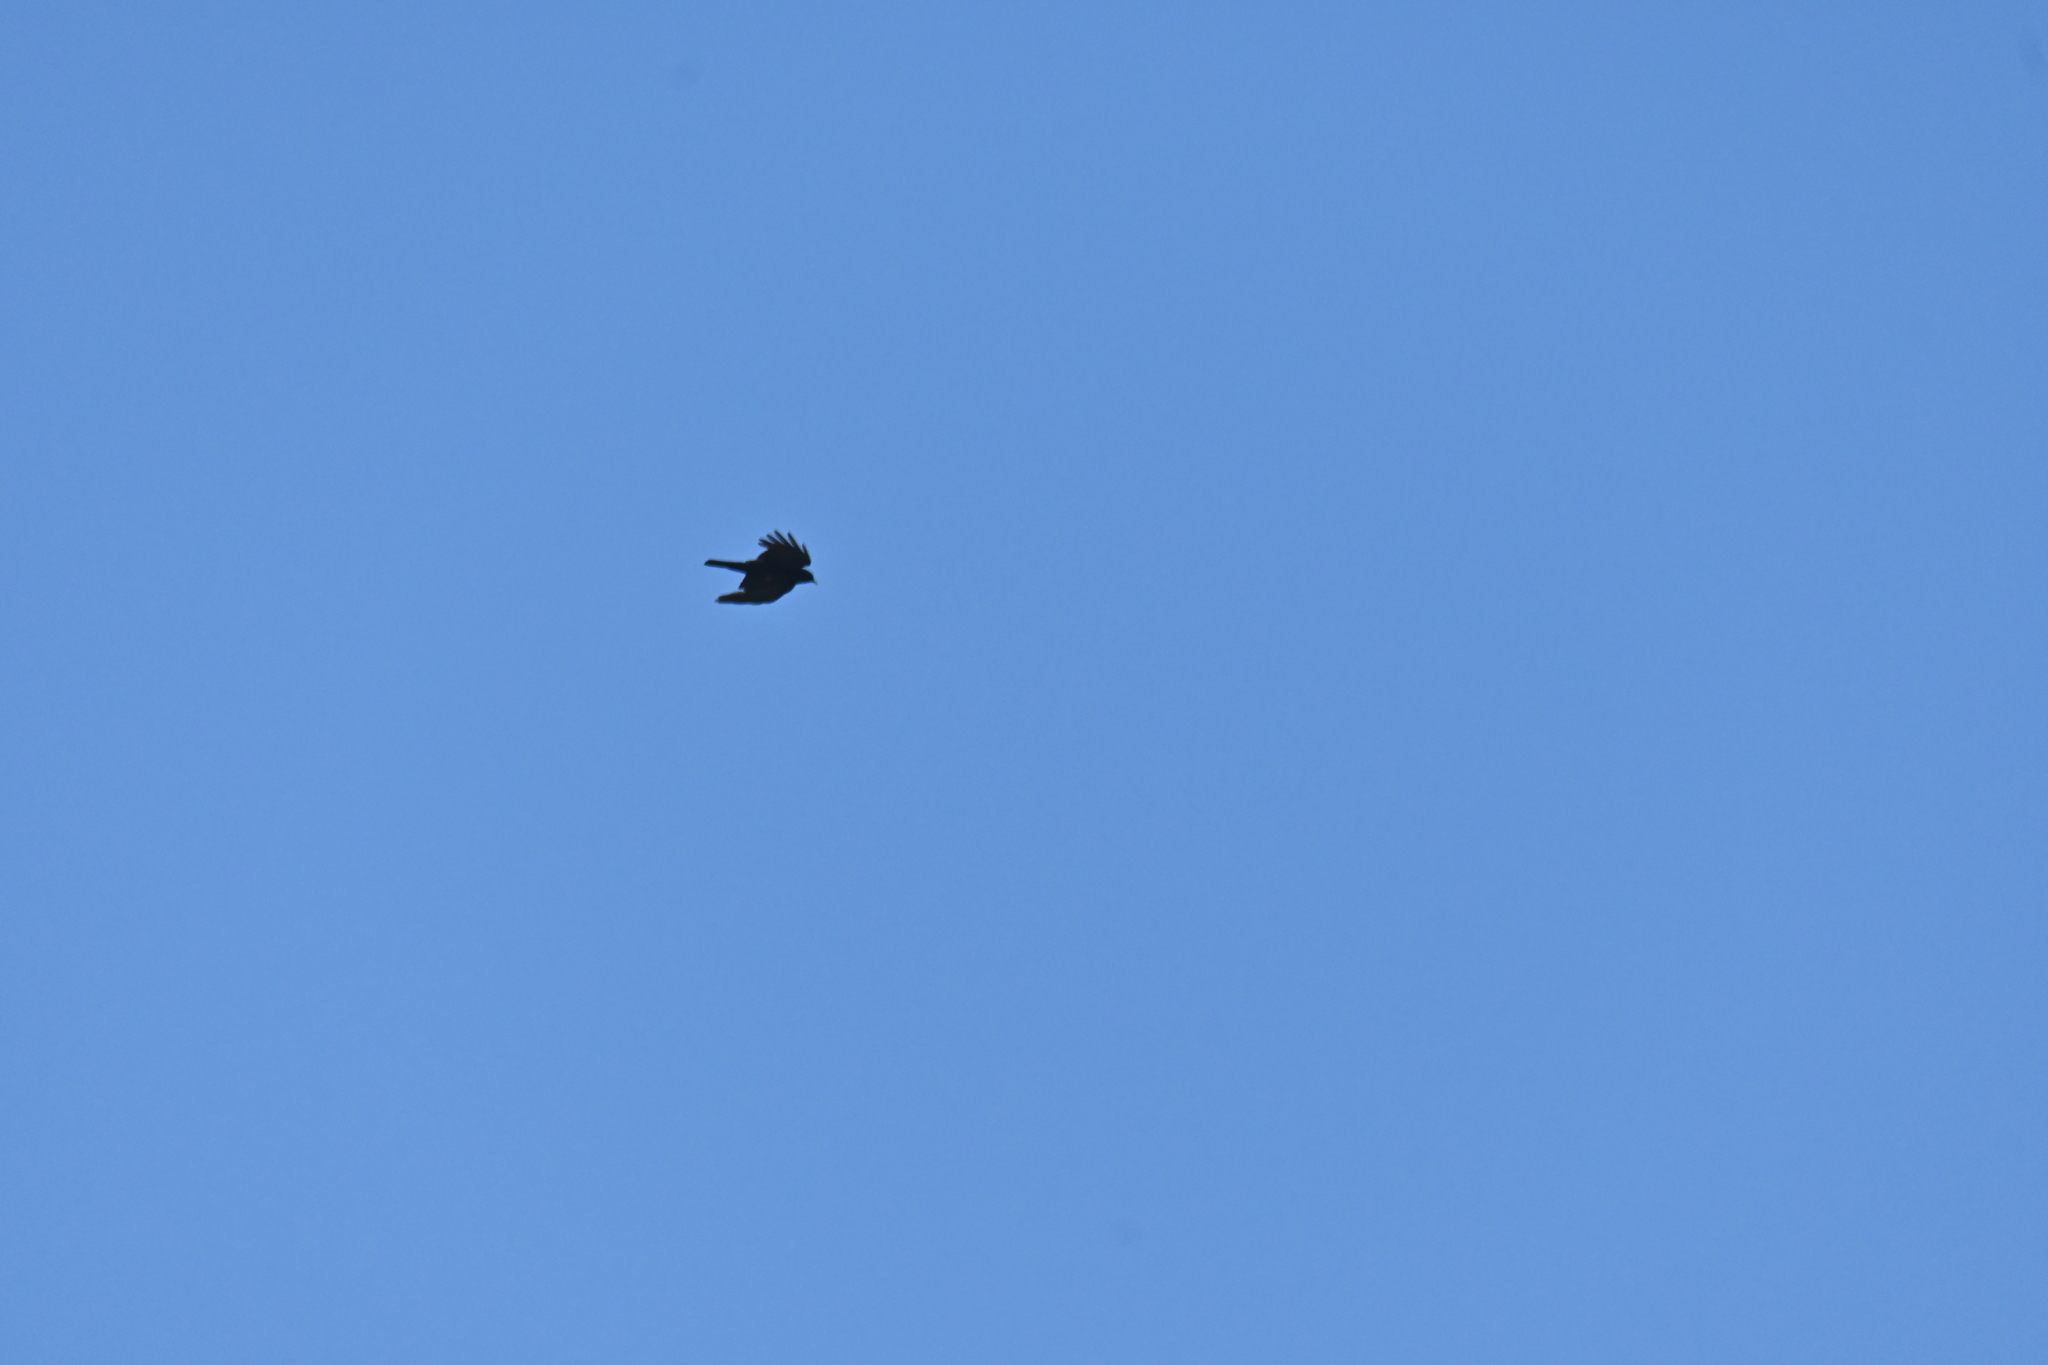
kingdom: Animalia
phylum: Chordata
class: Aves
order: Passeriformes
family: Corvidae
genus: Pyrrhocorax
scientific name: Pyrrhocorax graculus
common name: Alpine chough
